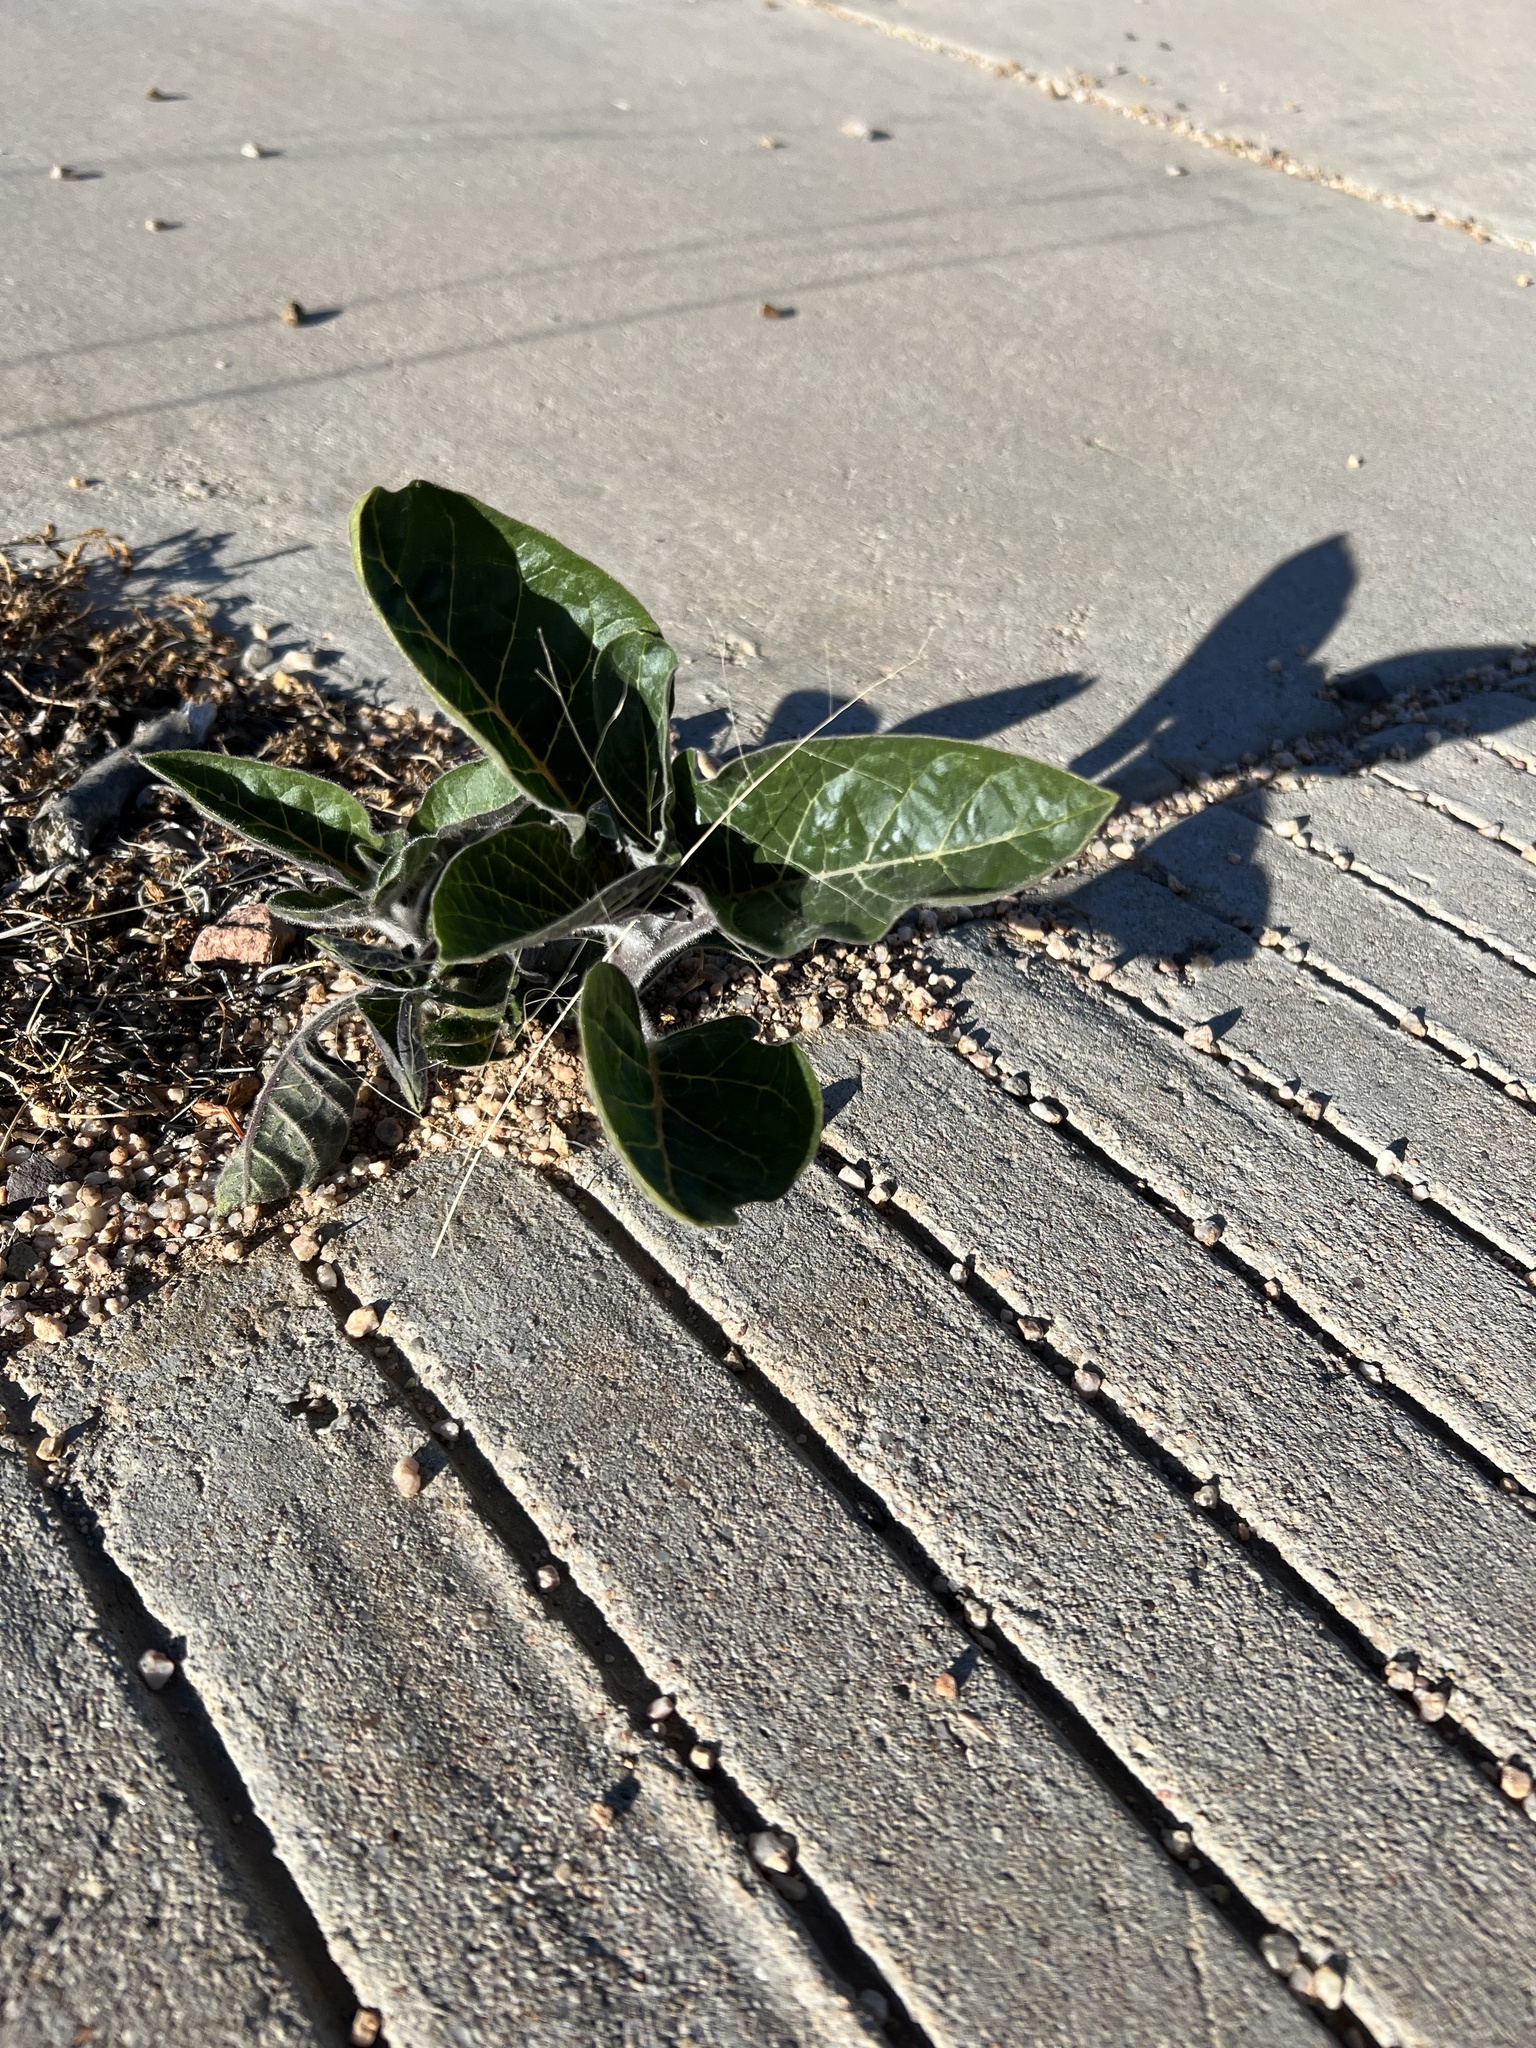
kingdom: Plantae
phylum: Tracheophyta
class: Magnoliopsida
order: Solanales
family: Solanaceae
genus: Datura
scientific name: Datura wrightii
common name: Sacred thorn-apple
